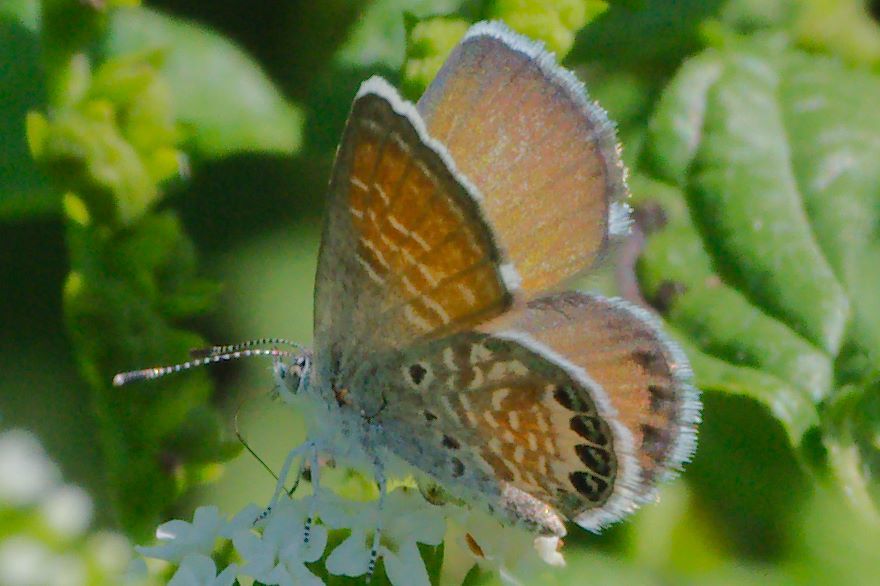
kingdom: Animalia
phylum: Arthropoda
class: Insecta
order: Lepidoptera
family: Lycaenidae
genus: Brephidium
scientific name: Brephidium exilis
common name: Pygmy blue
